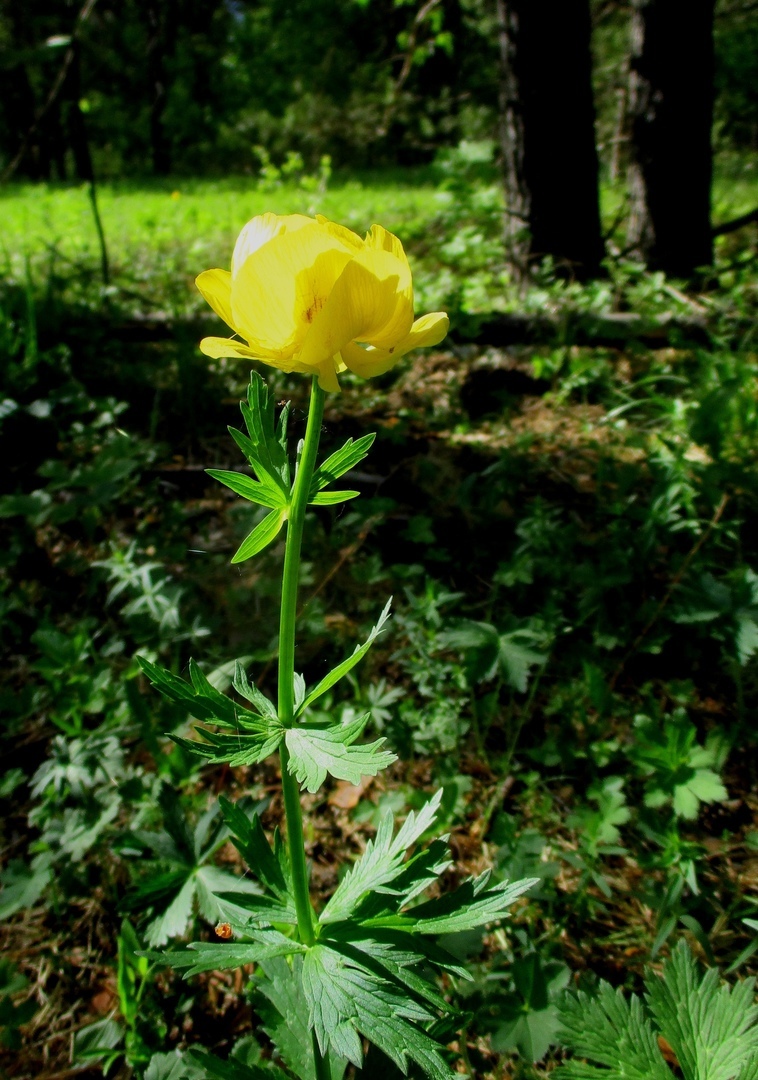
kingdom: Plantae
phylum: Tracheophyta
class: Magnoliopsida
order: Ranunculales
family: Ranunculaceae
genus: Trollius
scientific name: Trollius europaeus
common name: European globeflower
